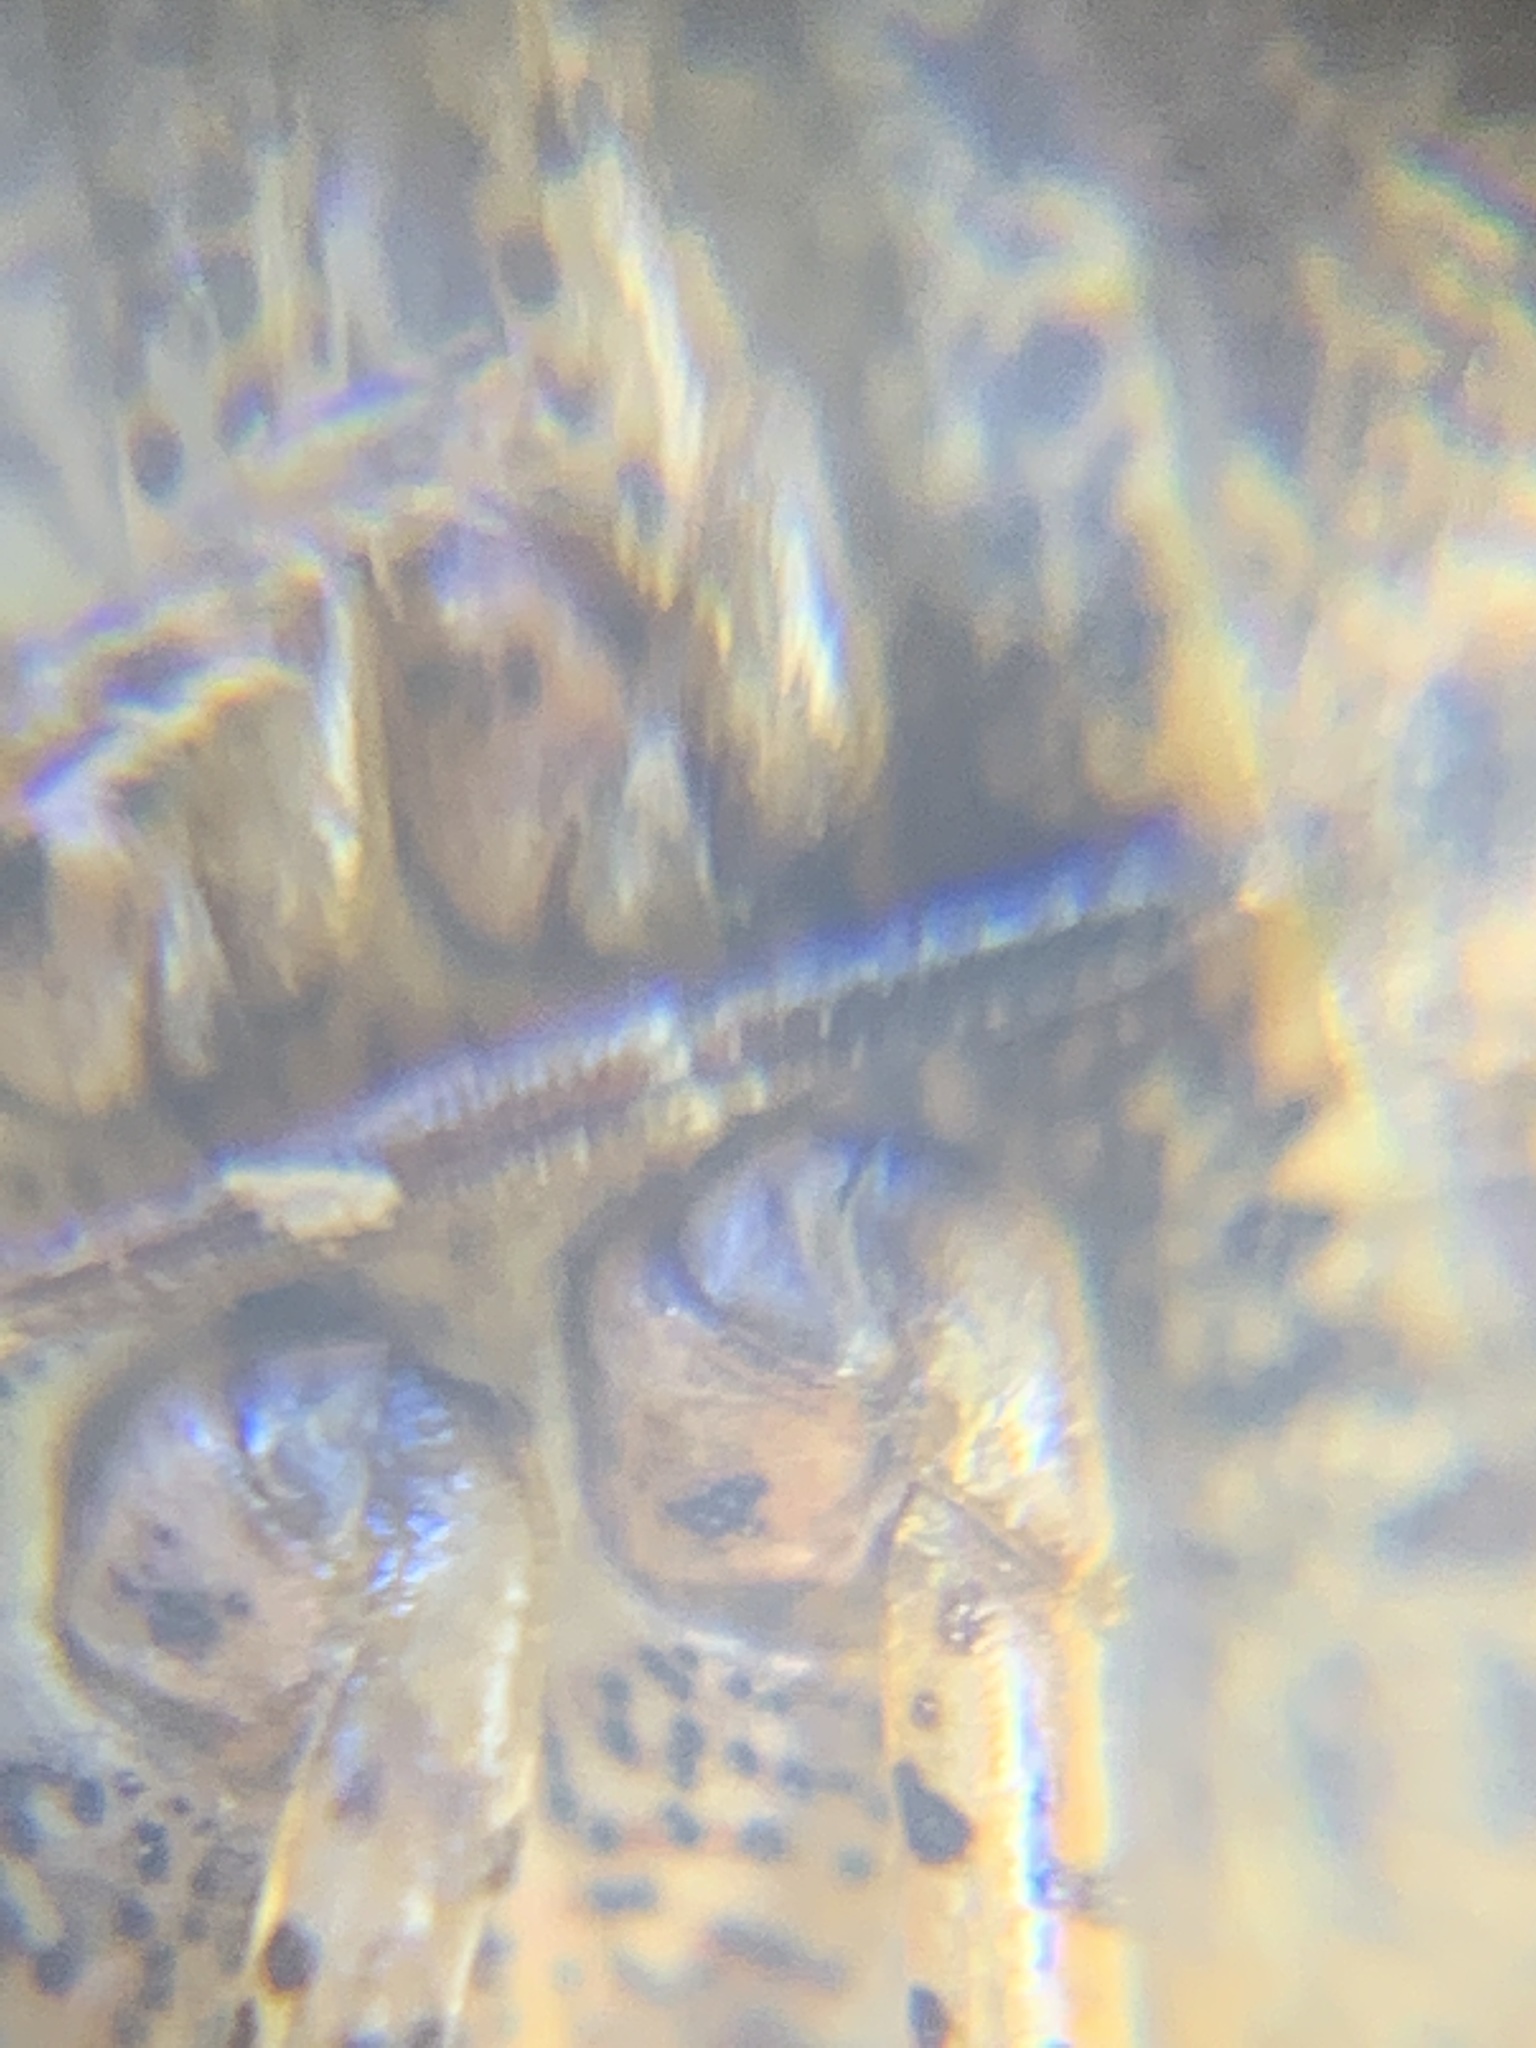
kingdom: Animalia
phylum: Arthropoda
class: Insecta
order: Hemiptera
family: Pentatomidae
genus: Menecles
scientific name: Menecles insertus
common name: Elf shoe stink bug
